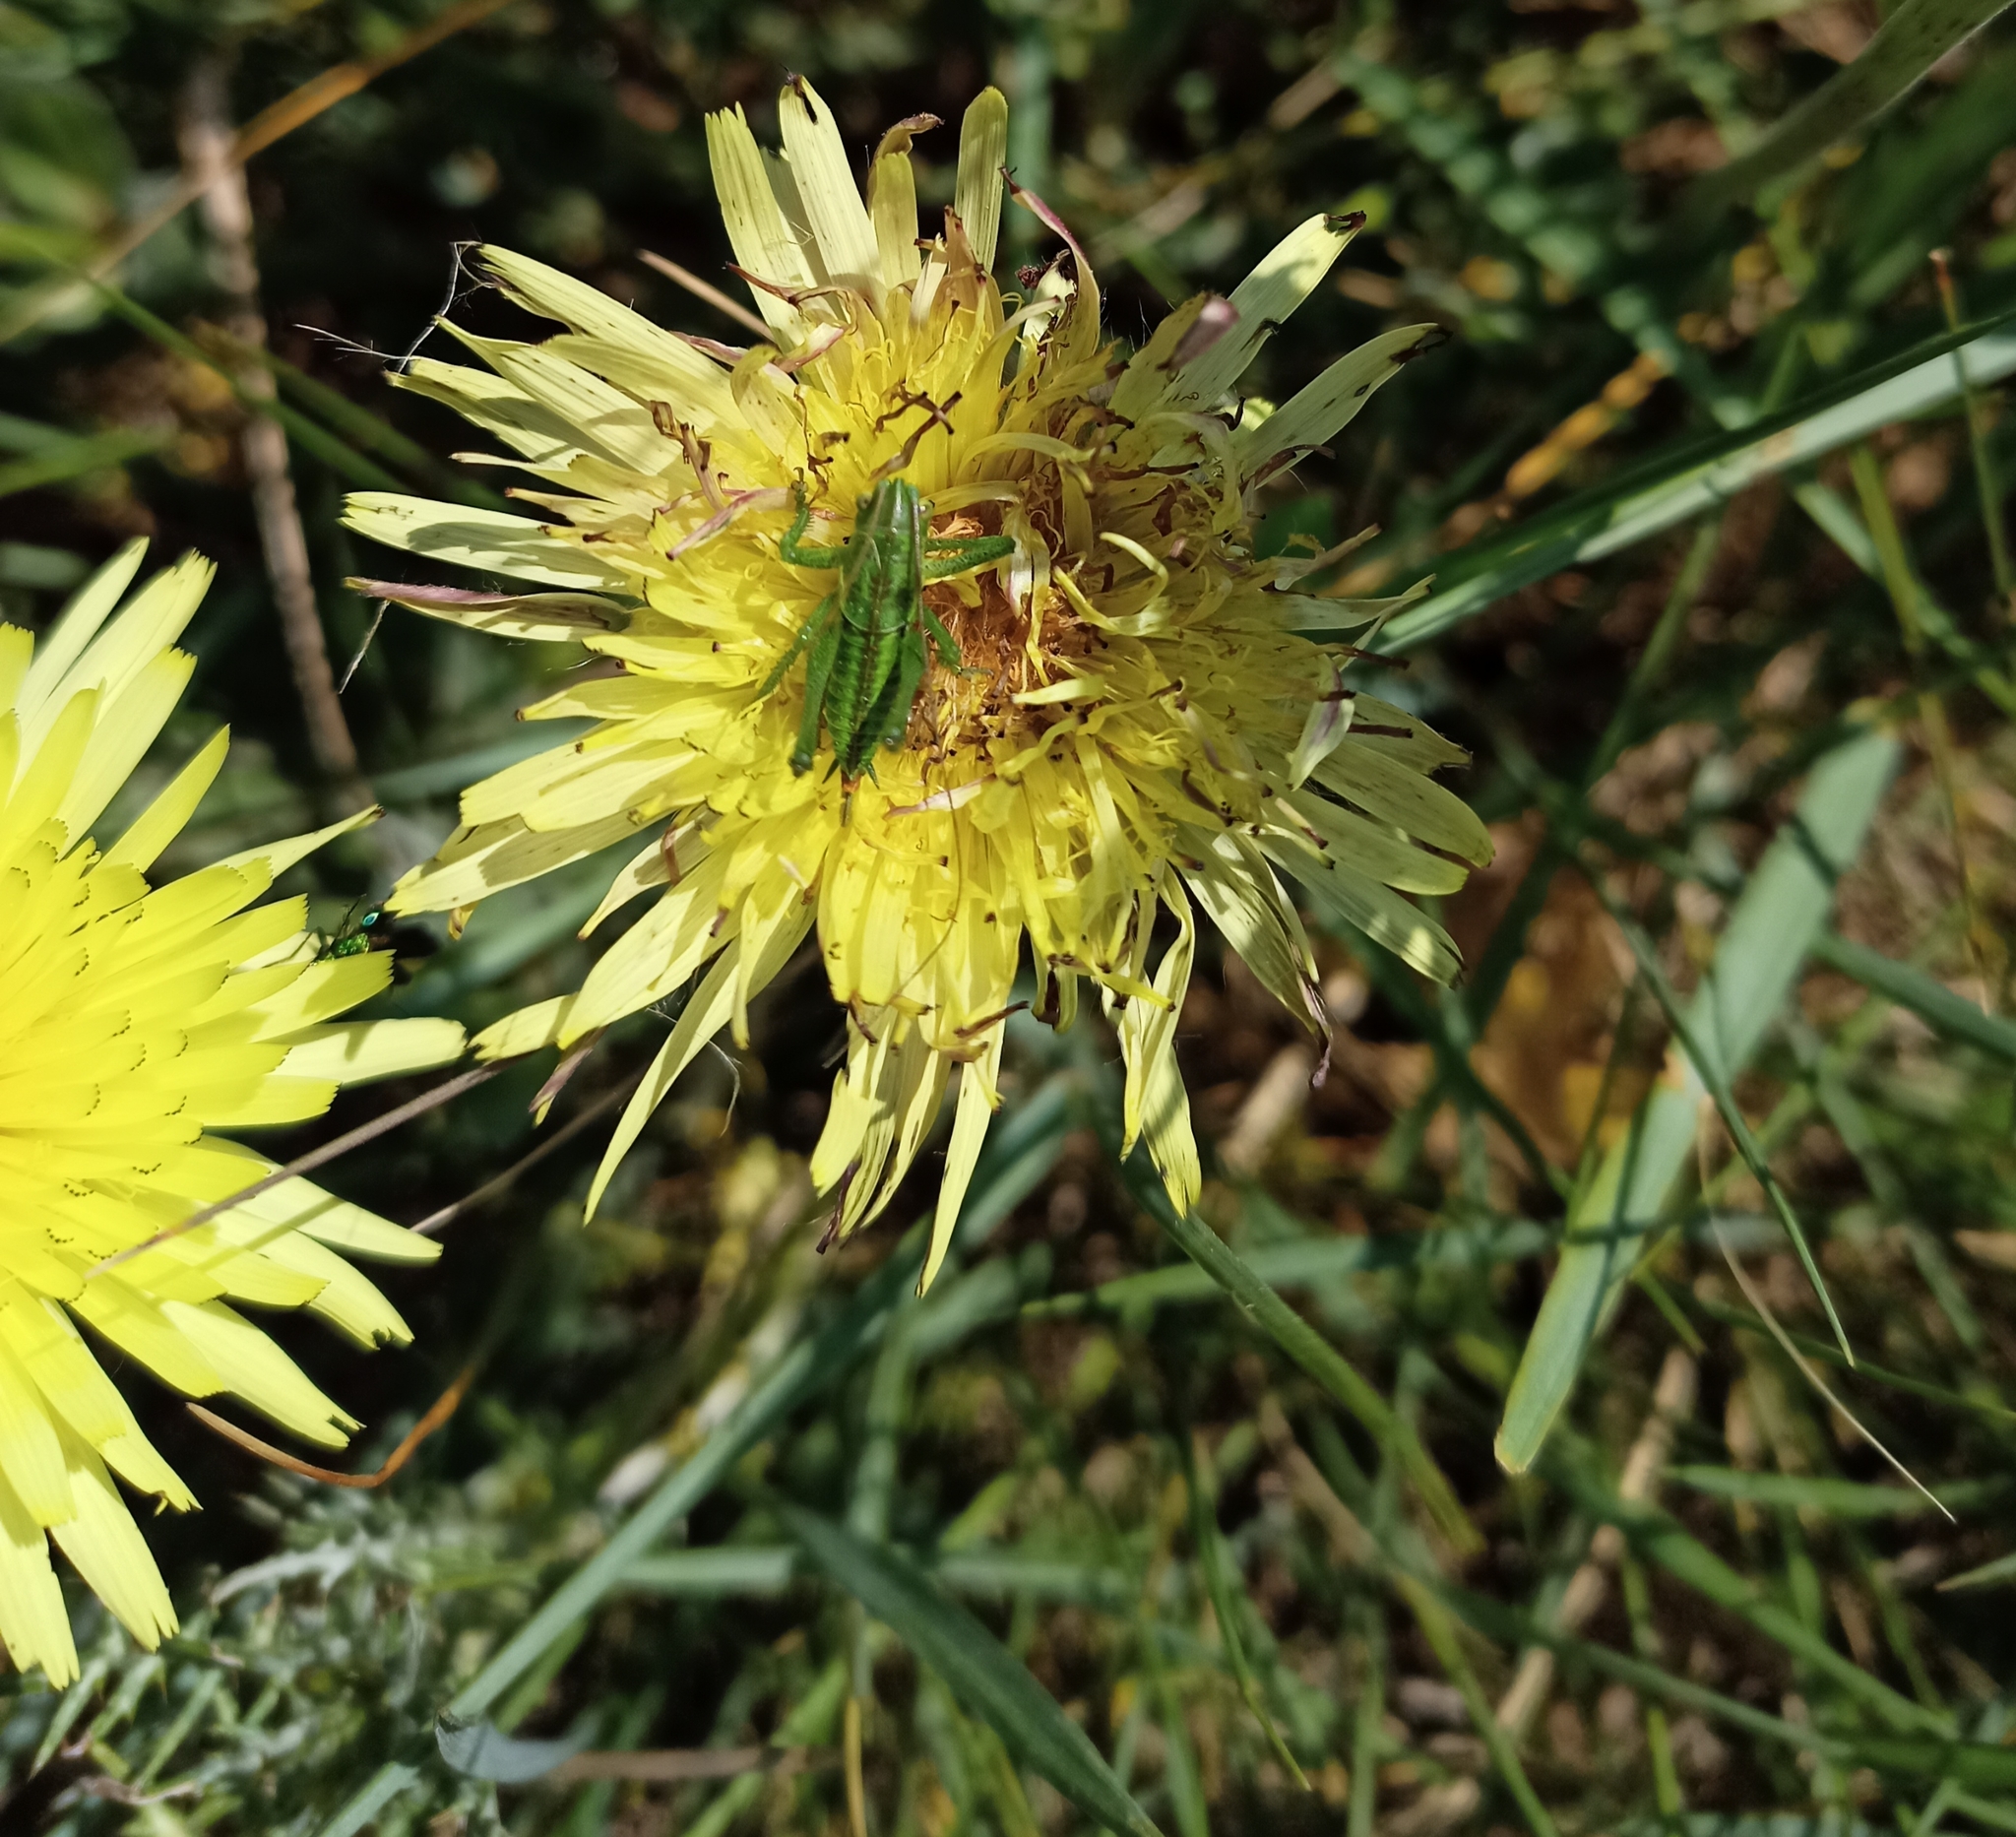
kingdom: Animalia
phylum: Arthropoda
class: Insecta
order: Orthoptera
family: Tettigoniidae
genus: Tettigonia
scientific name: Tettigonia viridissima
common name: Great green bush-cricket
